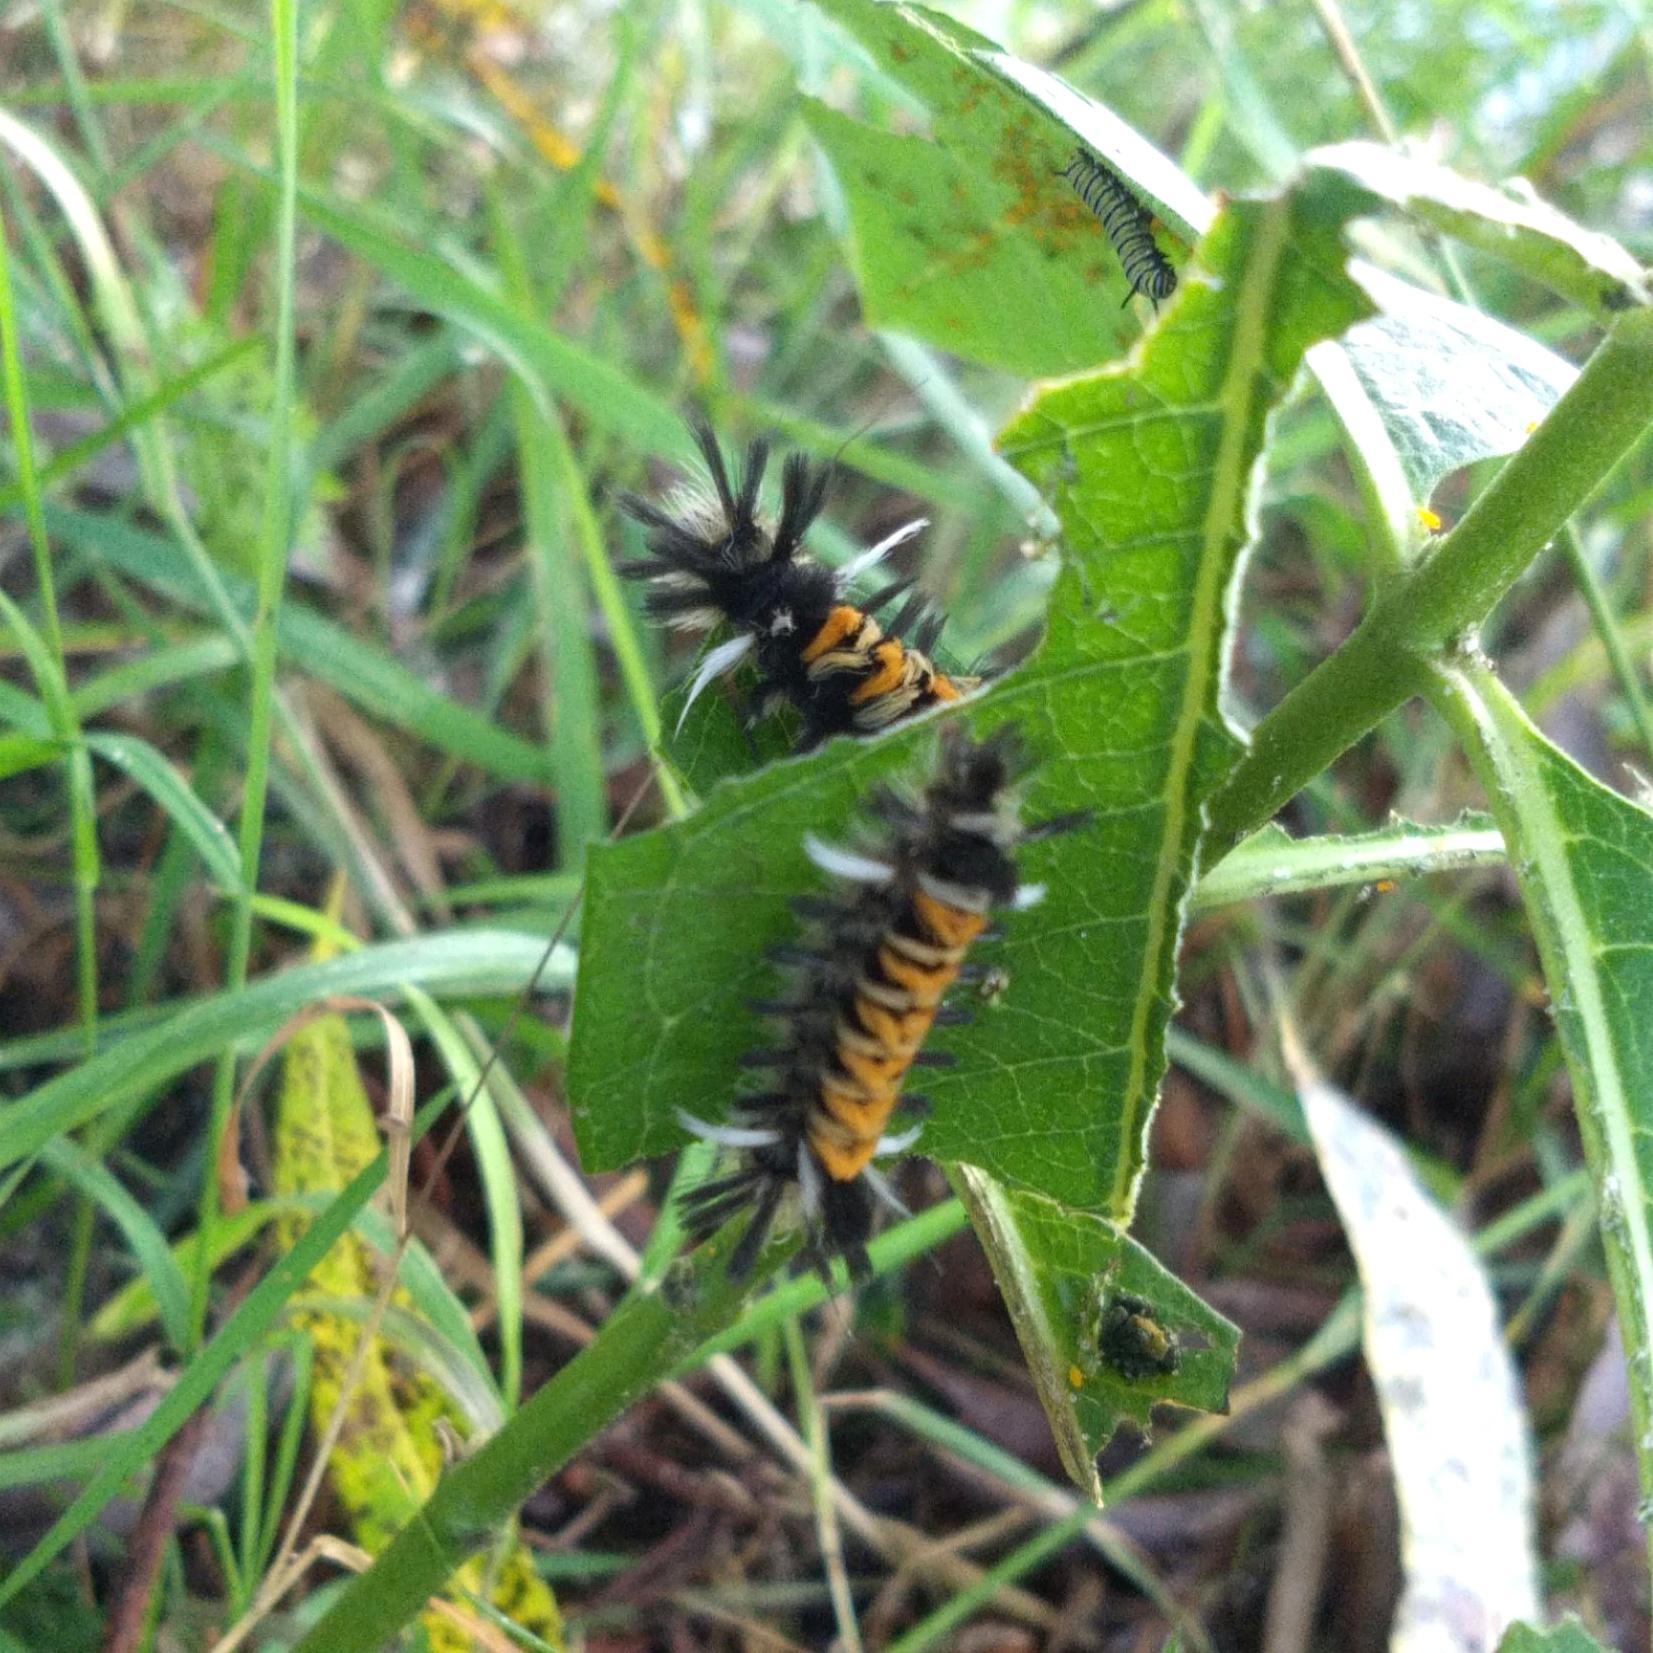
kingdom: Animalia
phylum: Arthropoda
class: Insecta
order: Lepidoptera
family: Erebidae
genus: Euchaetes
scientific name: Euchaetes egle
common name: Milkweed tussock moth
